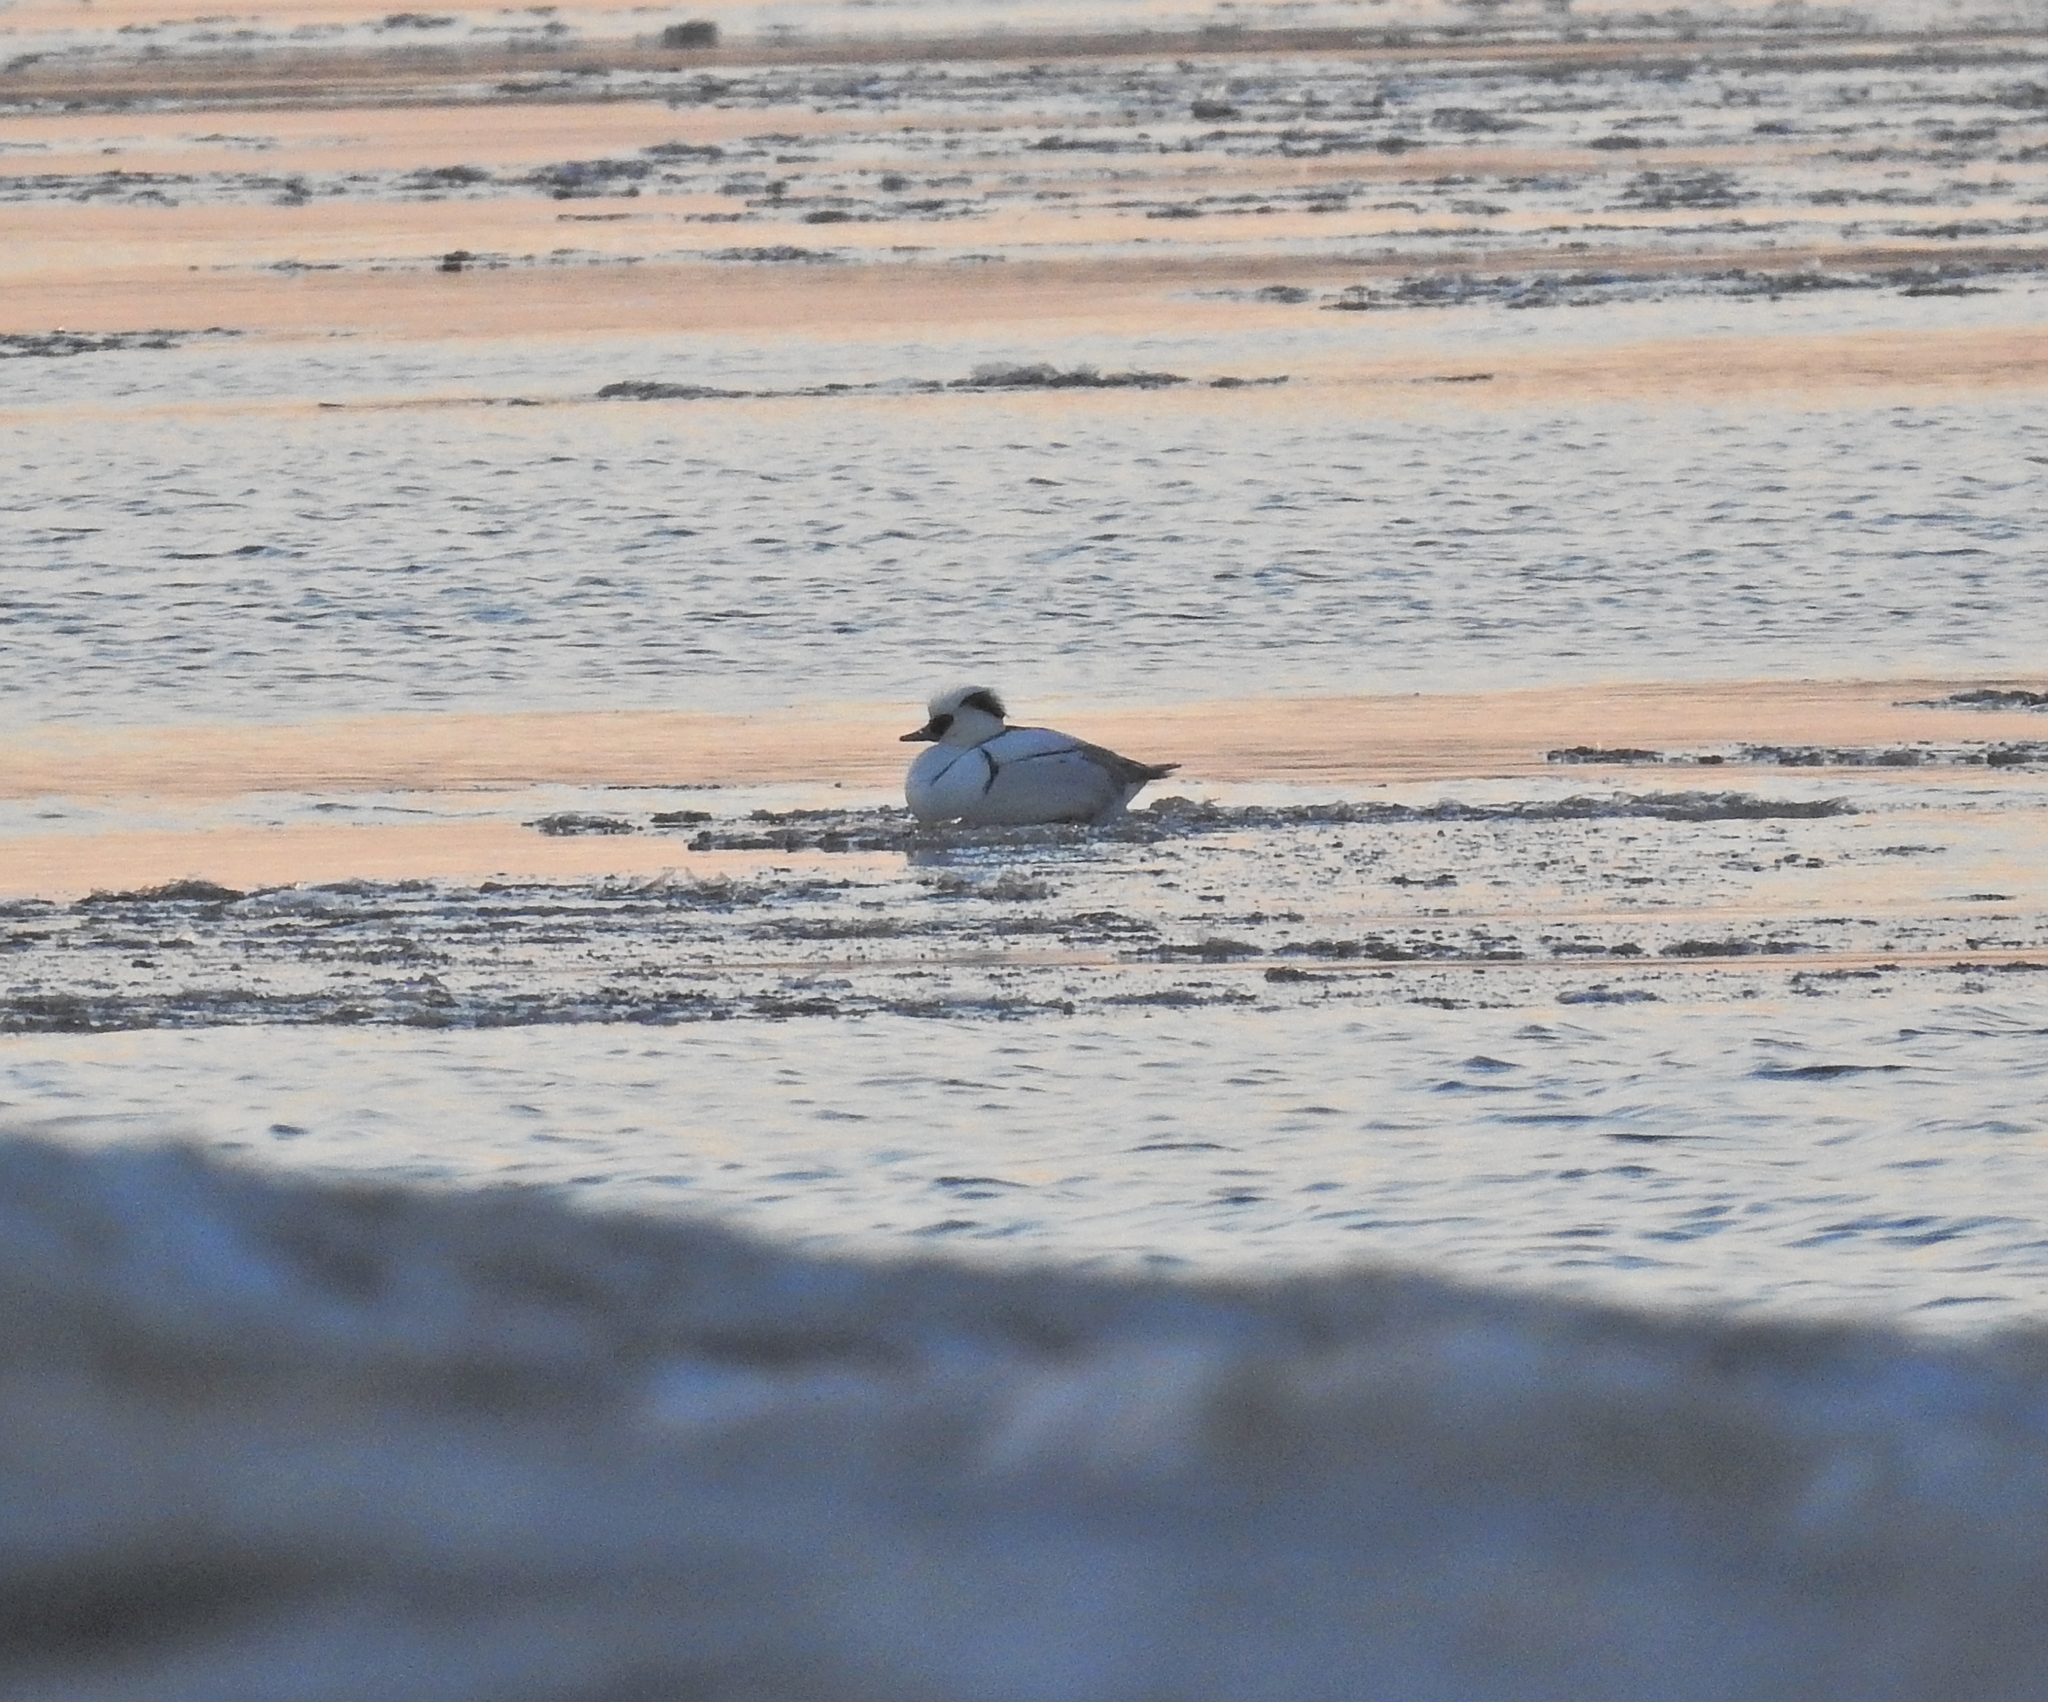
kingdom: Animalia
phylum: Chordata
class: Aves
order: Anseriformes
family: Anatidae
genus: Mergellus
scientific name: Mergellus albellus
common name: Smew
